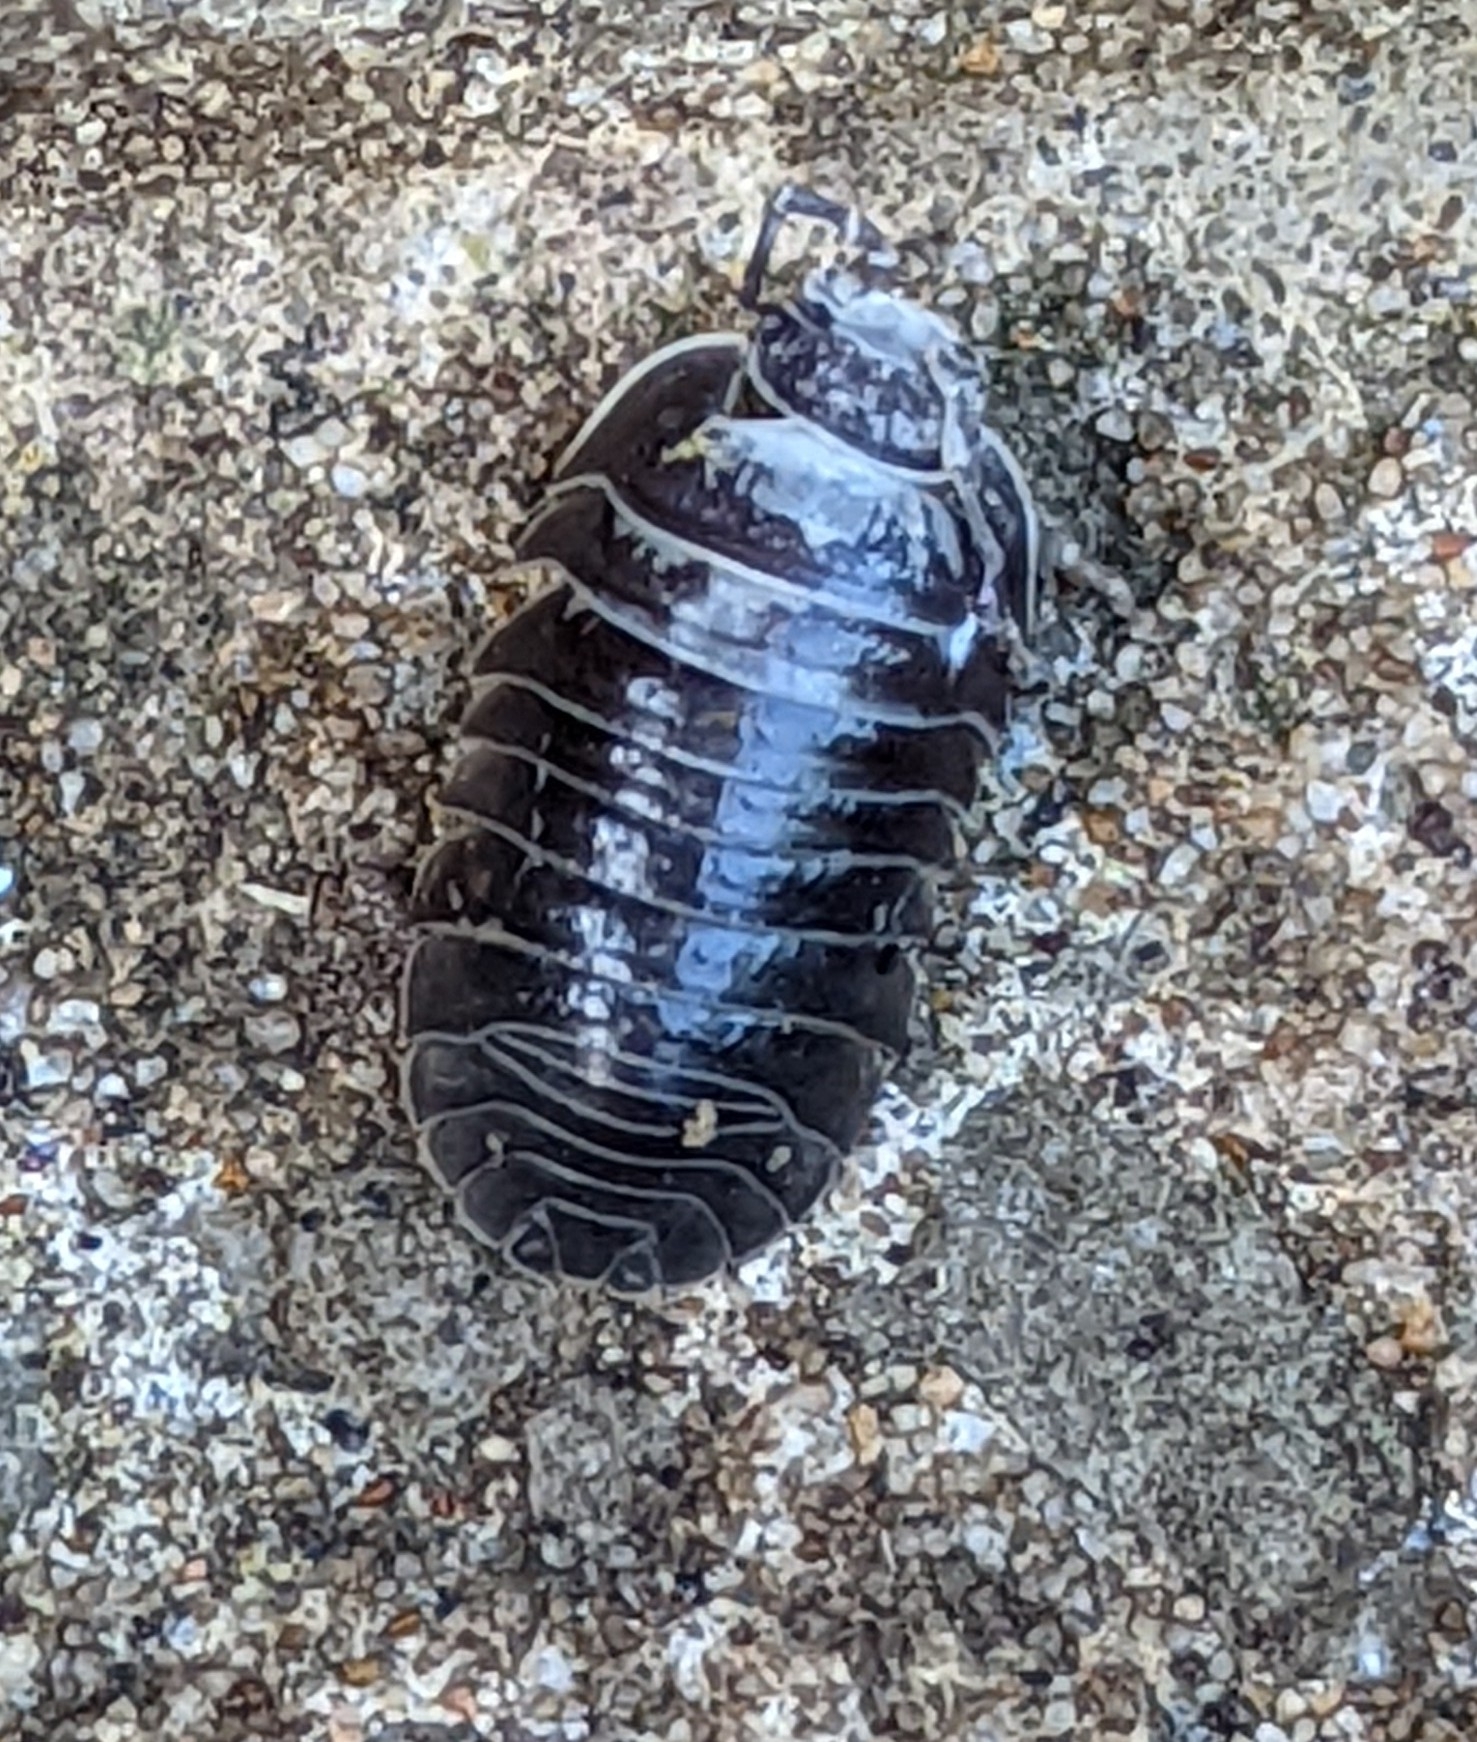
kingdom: Animalia
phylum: Arthropoda
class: Malacostraca
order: Isopoda
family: Armadillidiidae
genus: Armadillidium
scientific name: Armadillidium depressum
